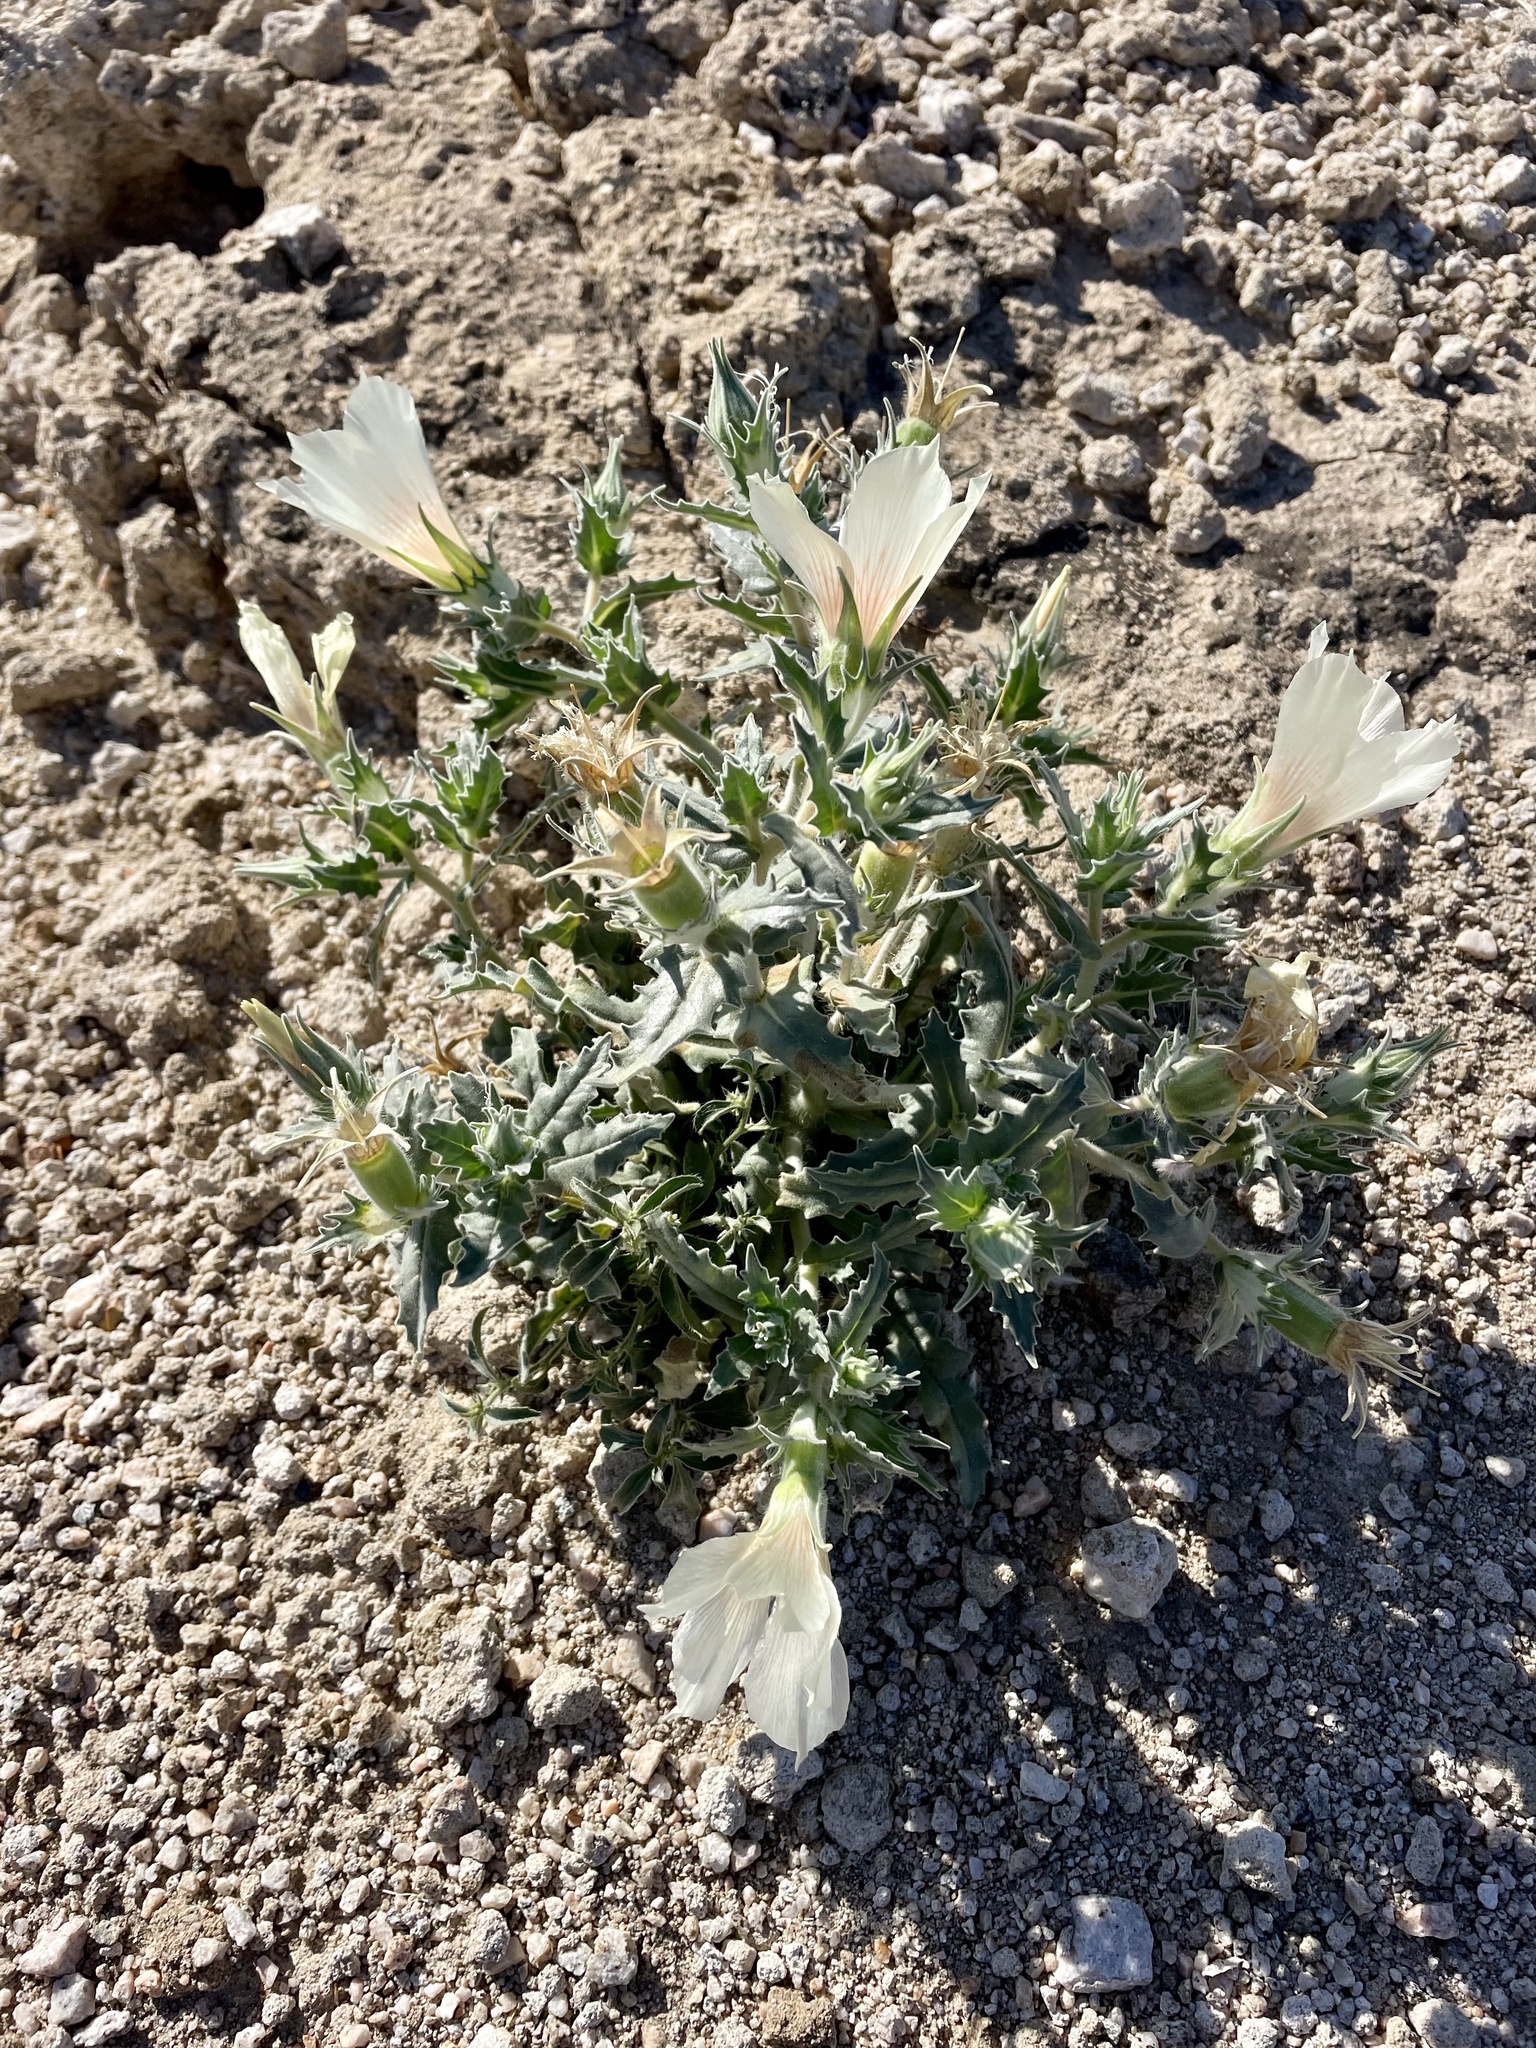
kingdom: Plantae
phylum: Tracheophyta
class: Magnoliopsida
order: Cornales
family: Loasaceae
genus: Mentzelia
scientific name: Mentzelia involucrata
